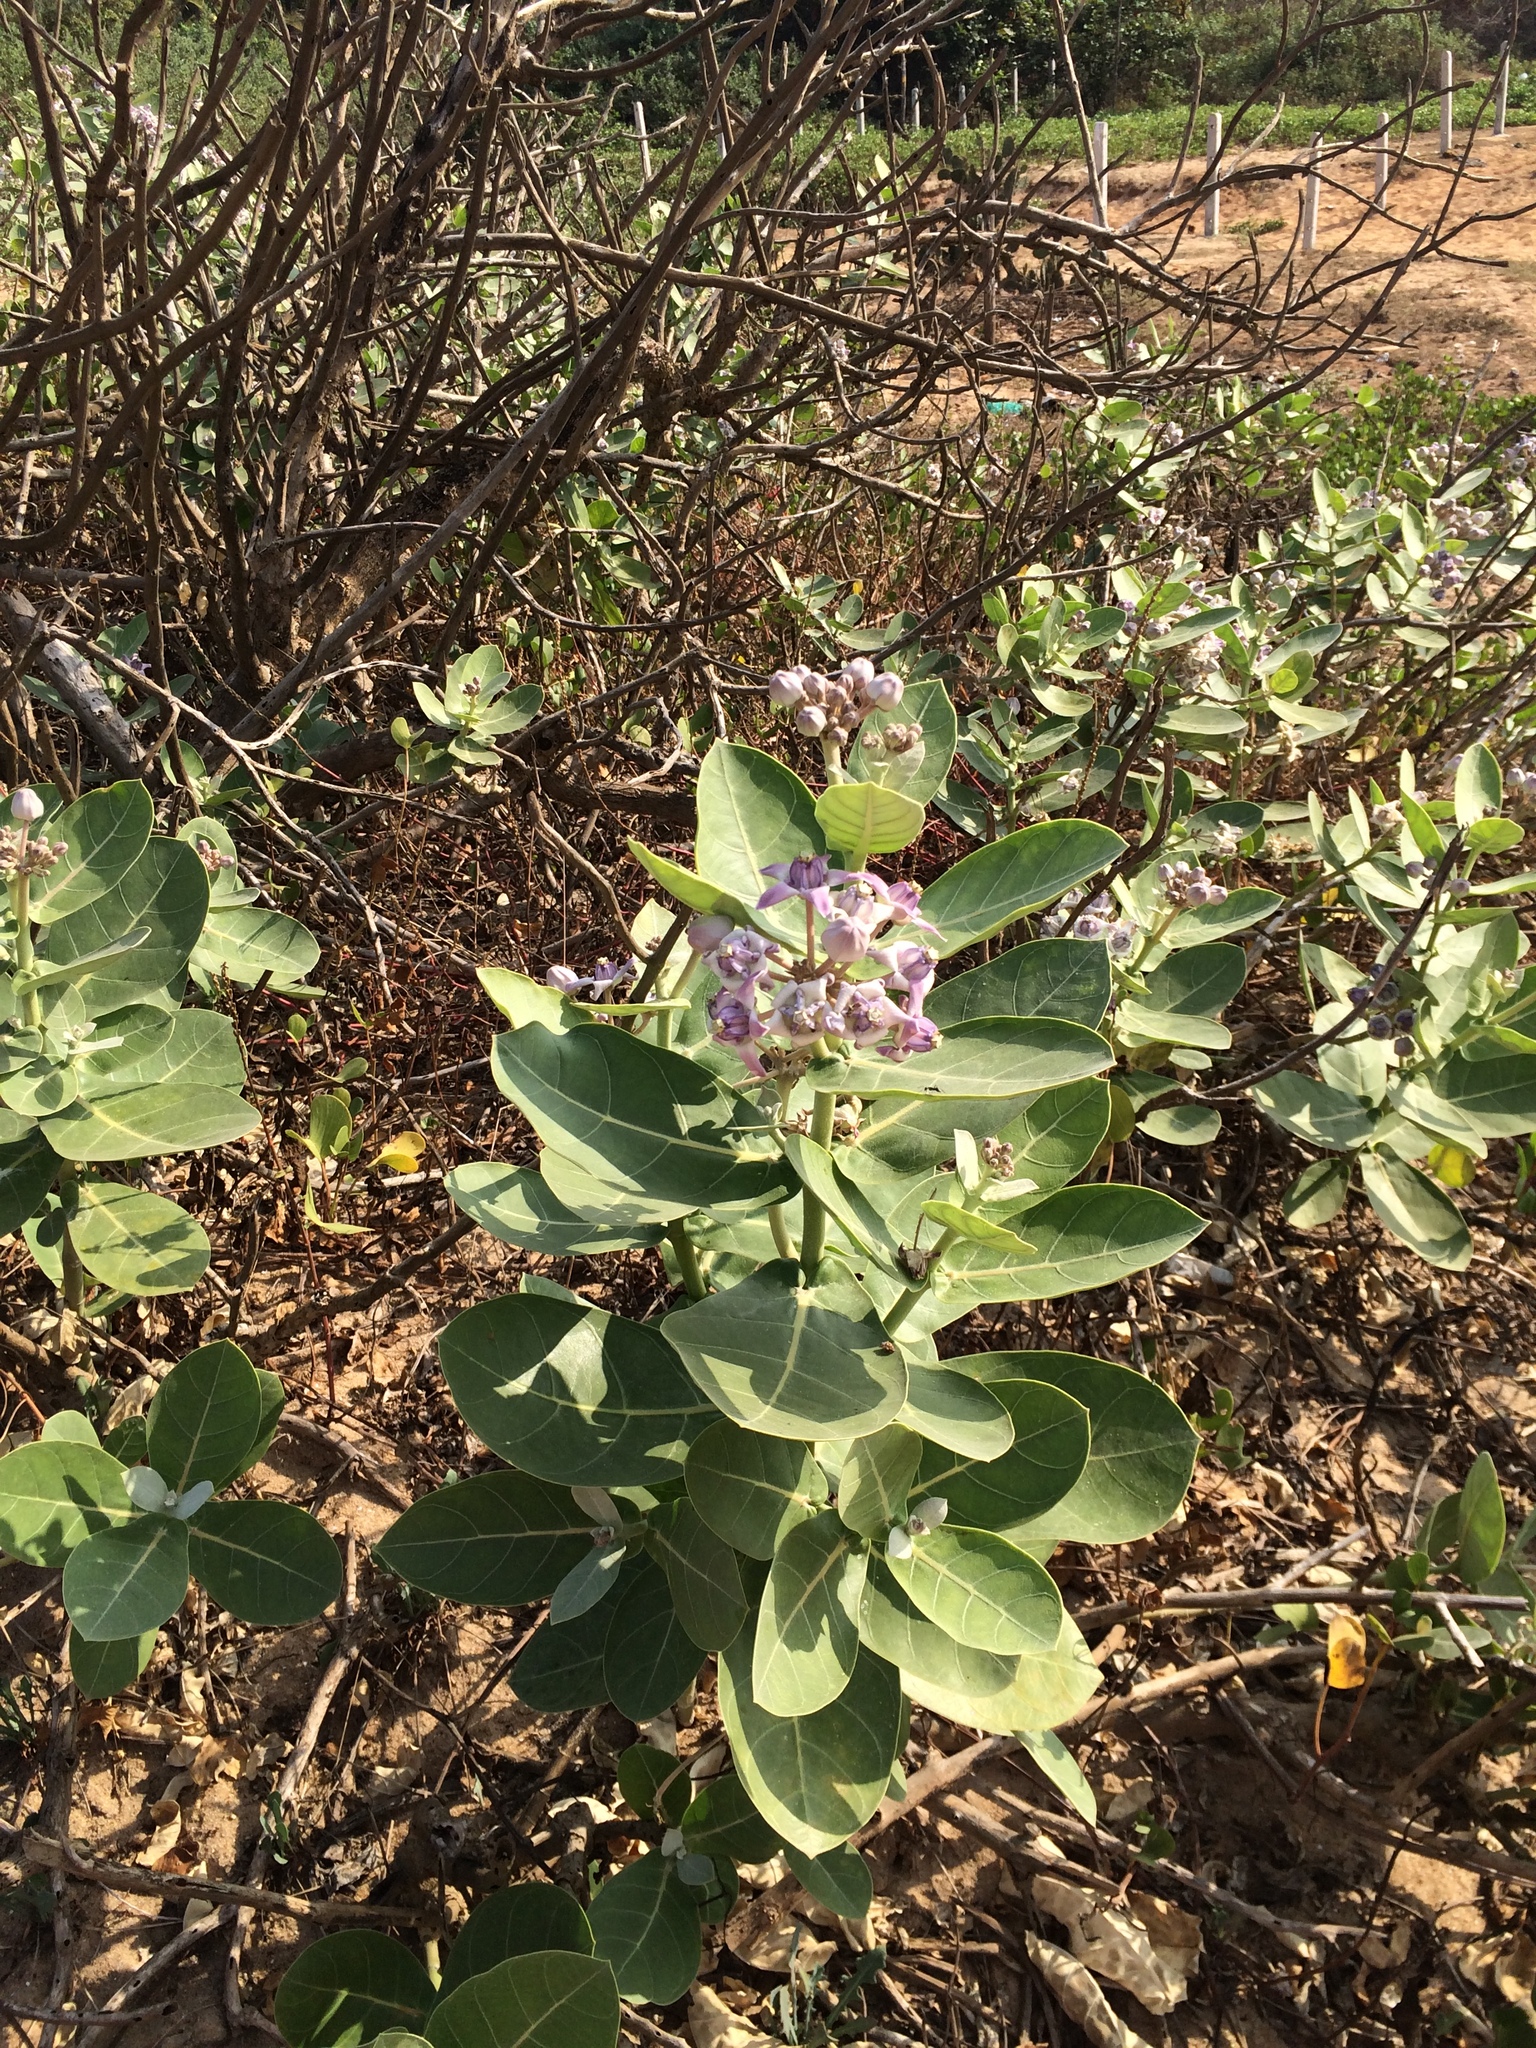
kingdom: Plantae
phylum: Tracheophyta
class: Magnoliopsida
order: Gentianales
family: Apocynaceae
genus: Calotropis
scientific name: Calotropis gigantea
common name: Crown flower
